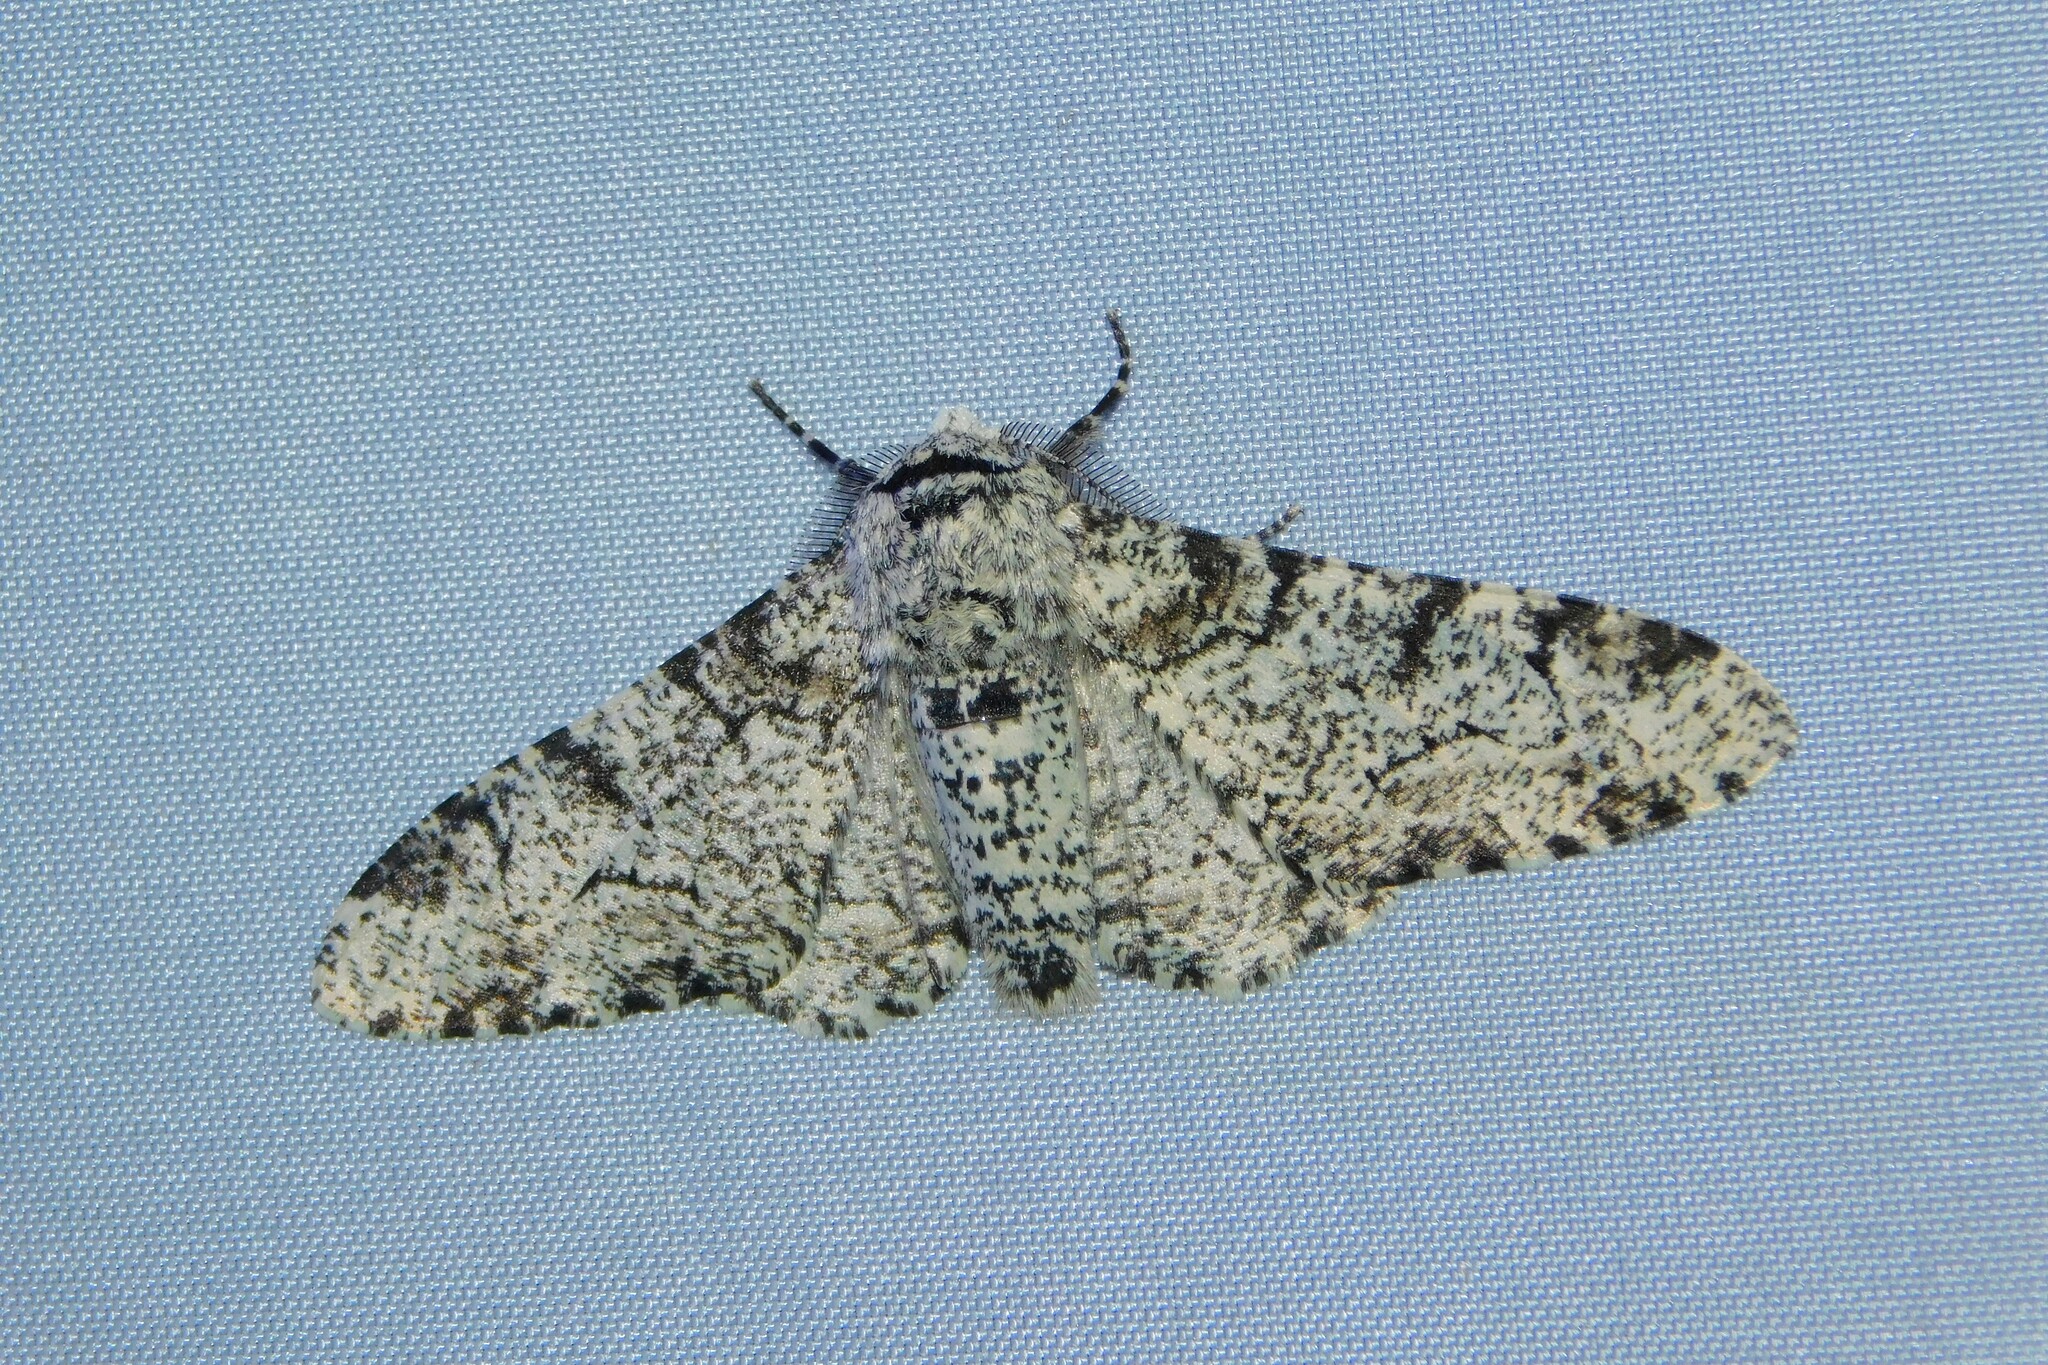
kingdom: Animalia
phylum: Arthropoda
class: Insecta
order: Lepidoptera
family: Geometridae
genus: Biston
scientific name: Biston betularia
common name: Peppered moth
